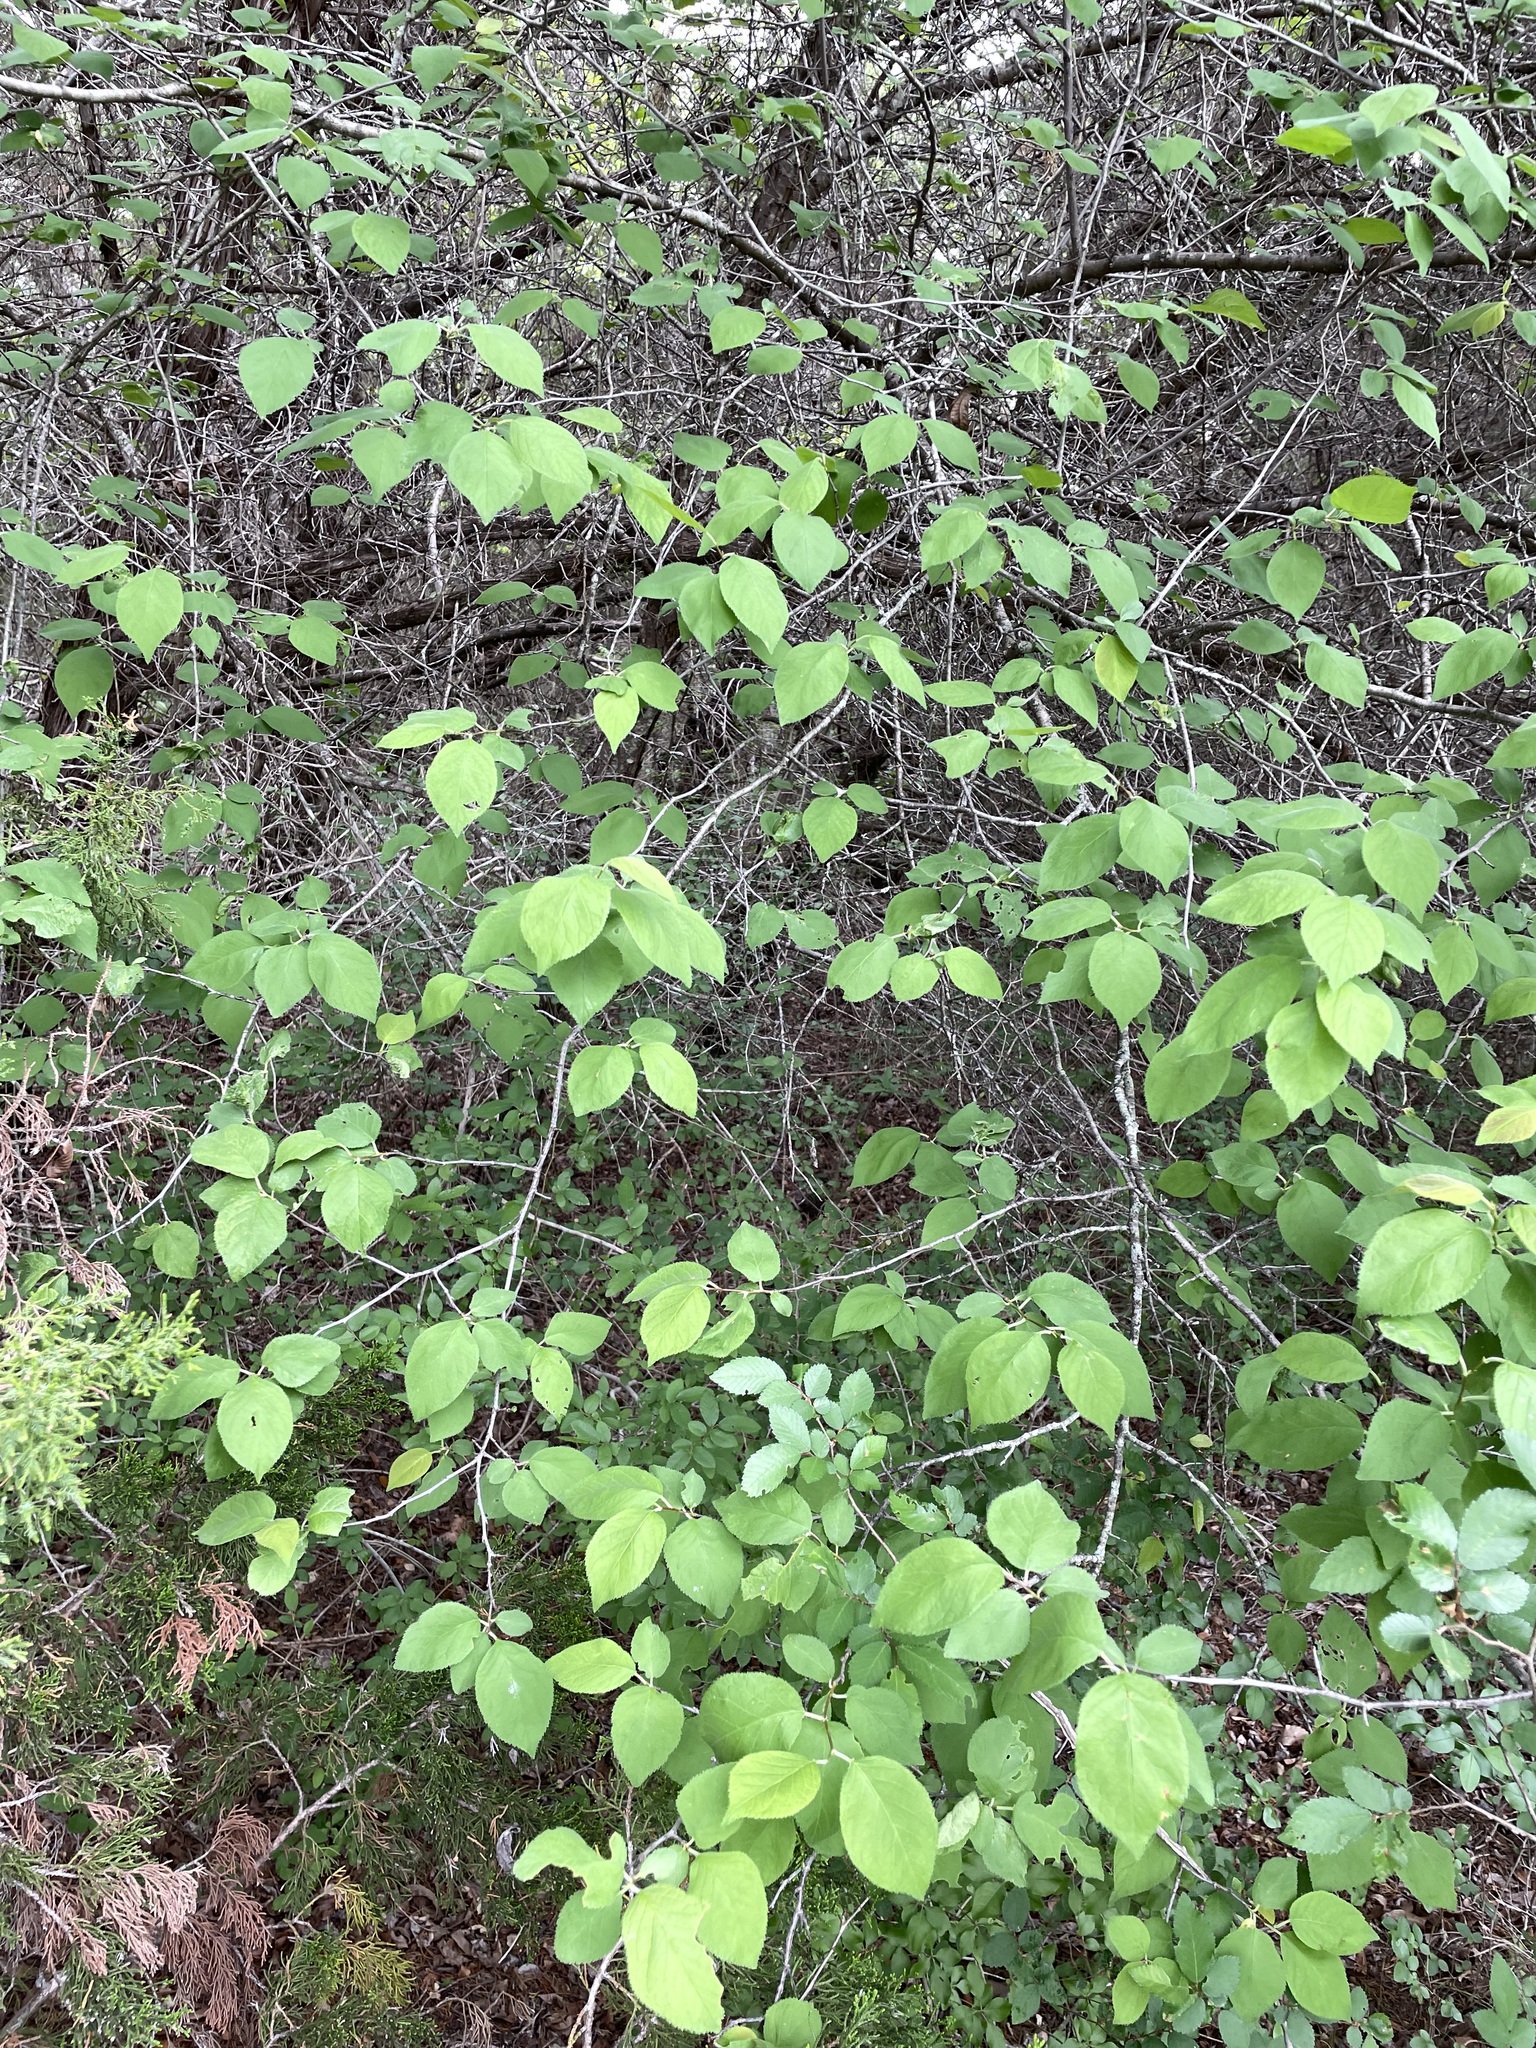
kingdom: Plantae
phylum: Tracheophyta
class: Magnoliopsida
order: Rosales
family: Rosaceae
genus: Prunus
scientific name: Prunus mexicana
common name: Mexican plum
